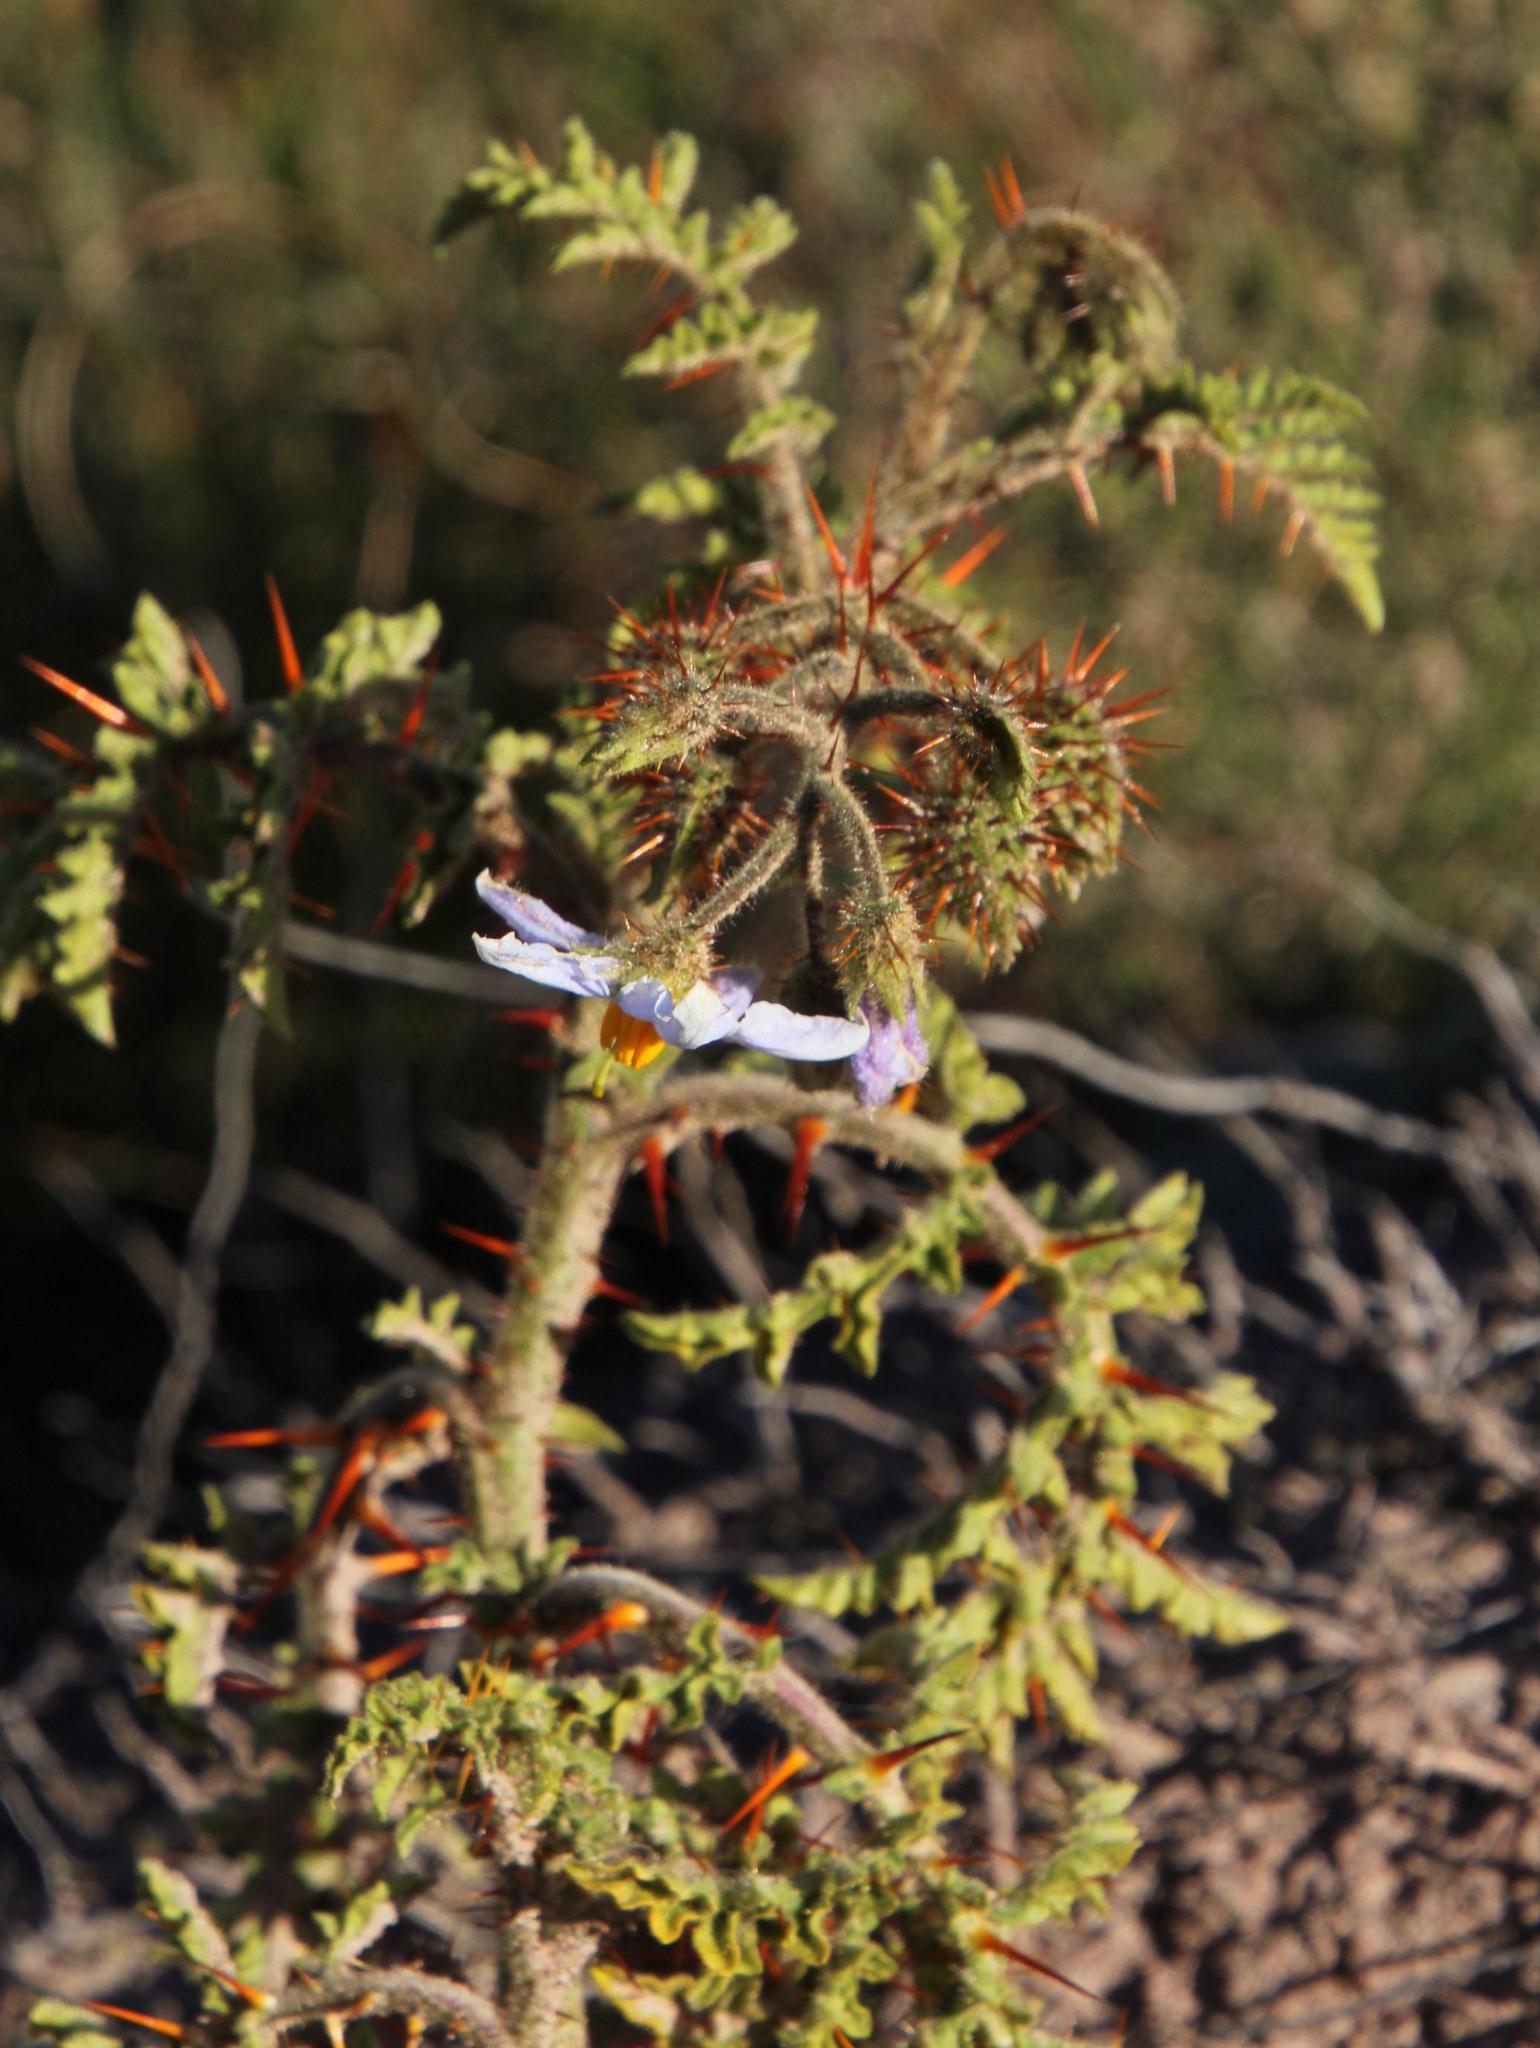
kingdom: Plantae
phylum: Tracheophyta
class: Magnoliopsida
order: Solanales
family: Solanaceae
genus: Solanum
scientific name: Solanum sisymbriifolium
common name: Red buffalo-bur
